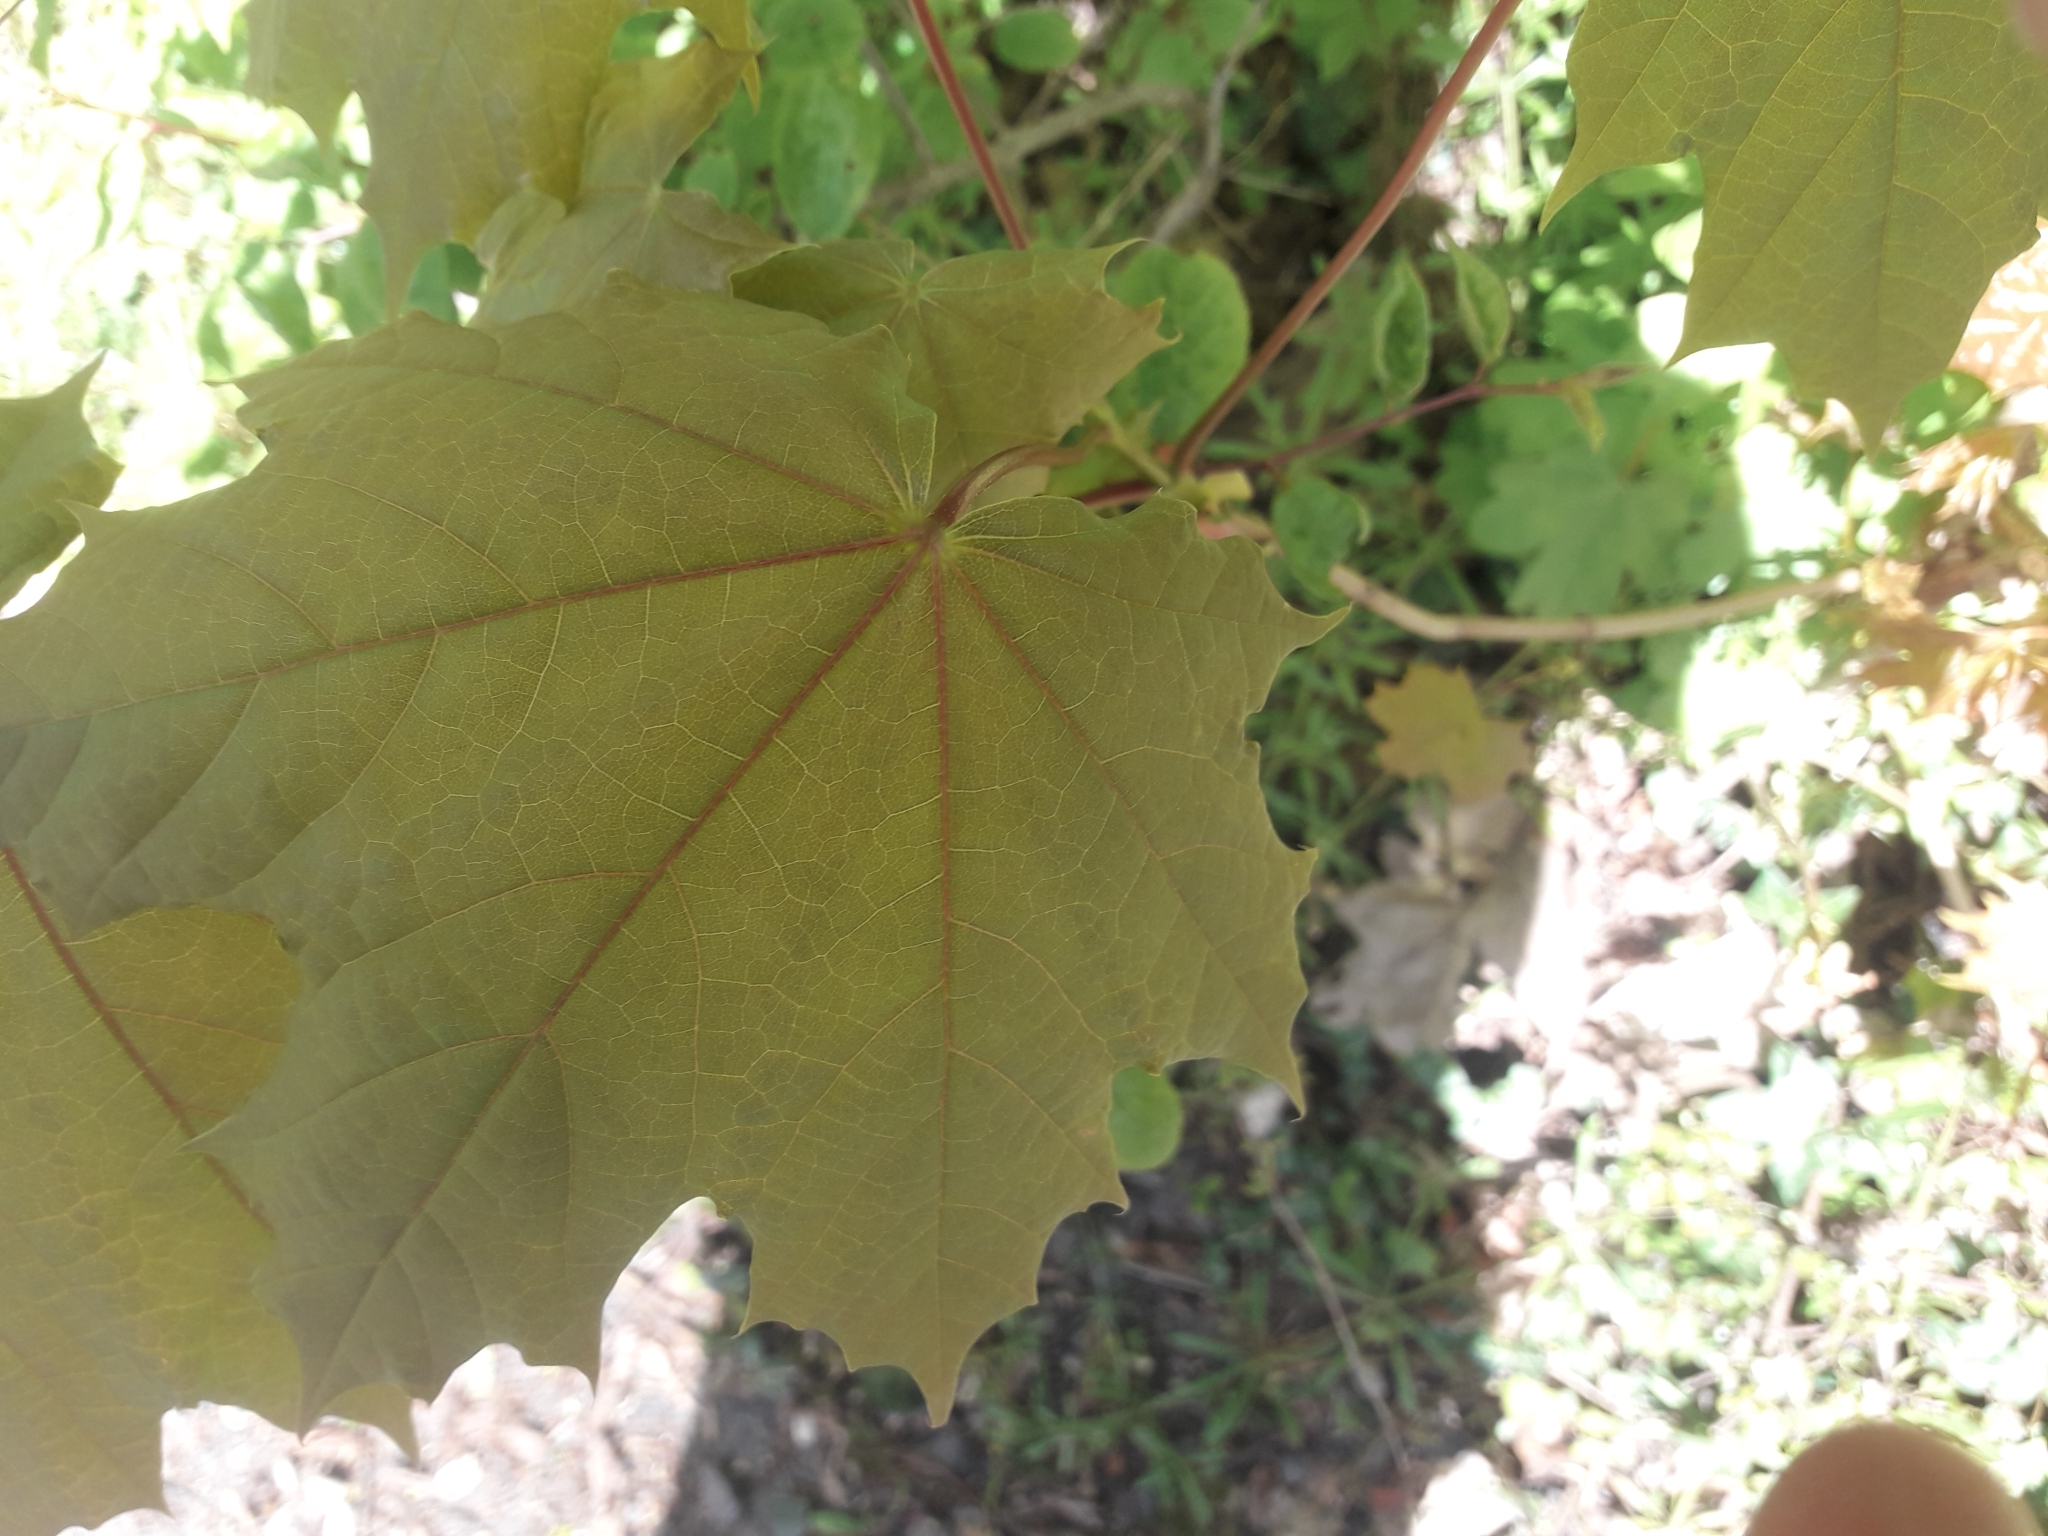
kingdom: Plantae
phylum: Tracheophyta
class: Magnoliopsida
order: Sapindales
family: Sapindaceae
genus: Acer
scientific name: Acer platanoides
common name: Norway maple
